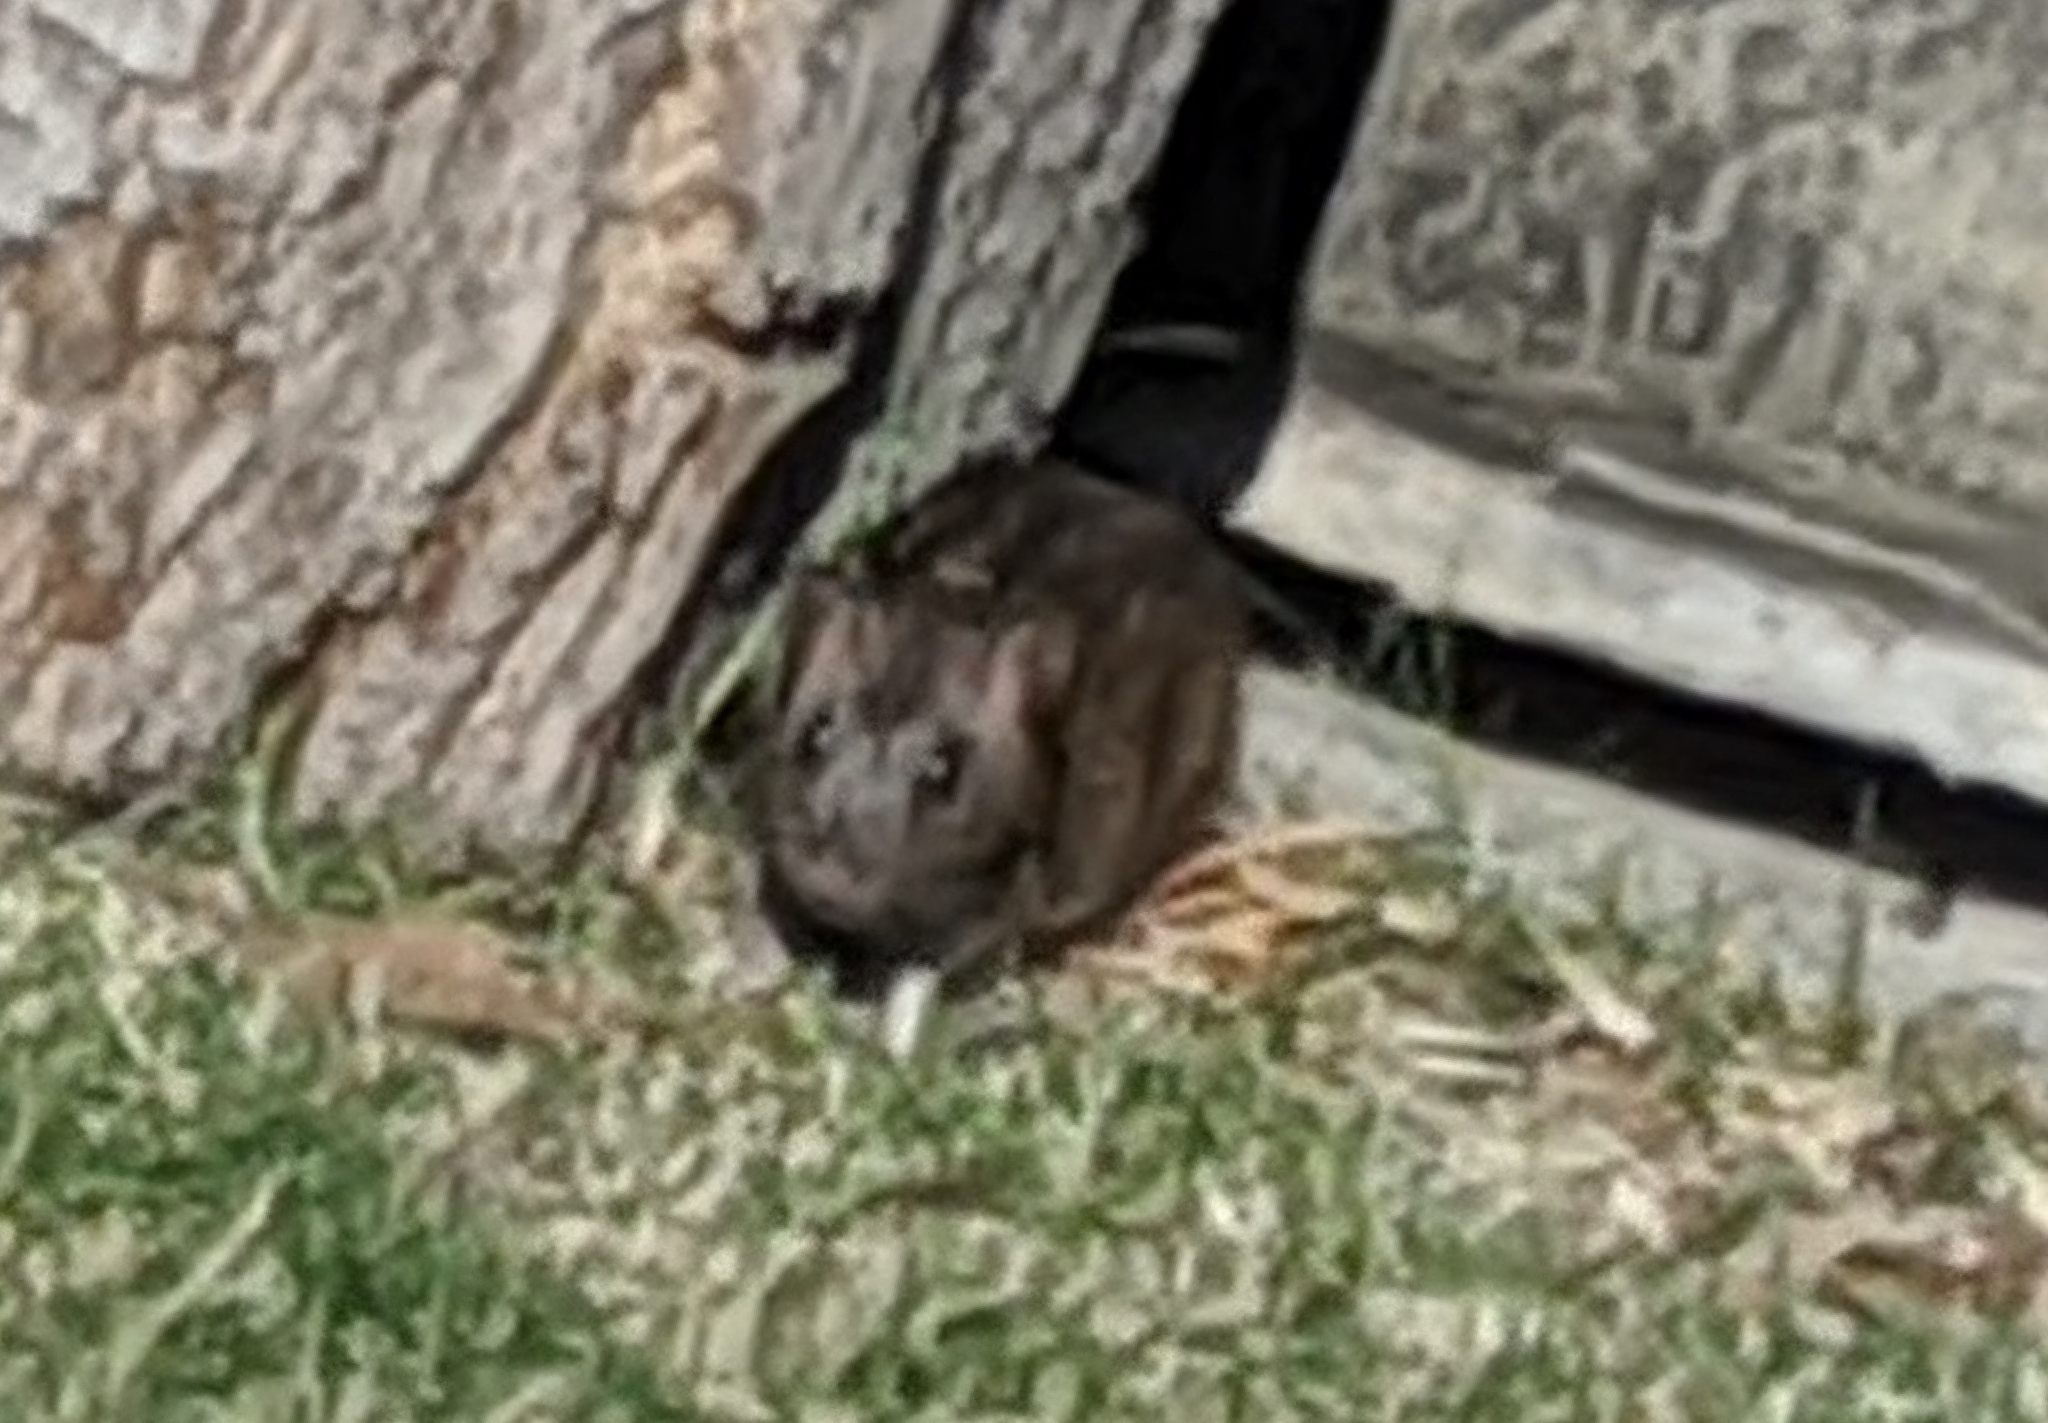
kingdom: Animalia
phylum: Chordata
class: Mammalia
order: Rodentia
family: Muridae
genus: Rattus
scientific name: Rattus norvegicus
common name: Brown rat
